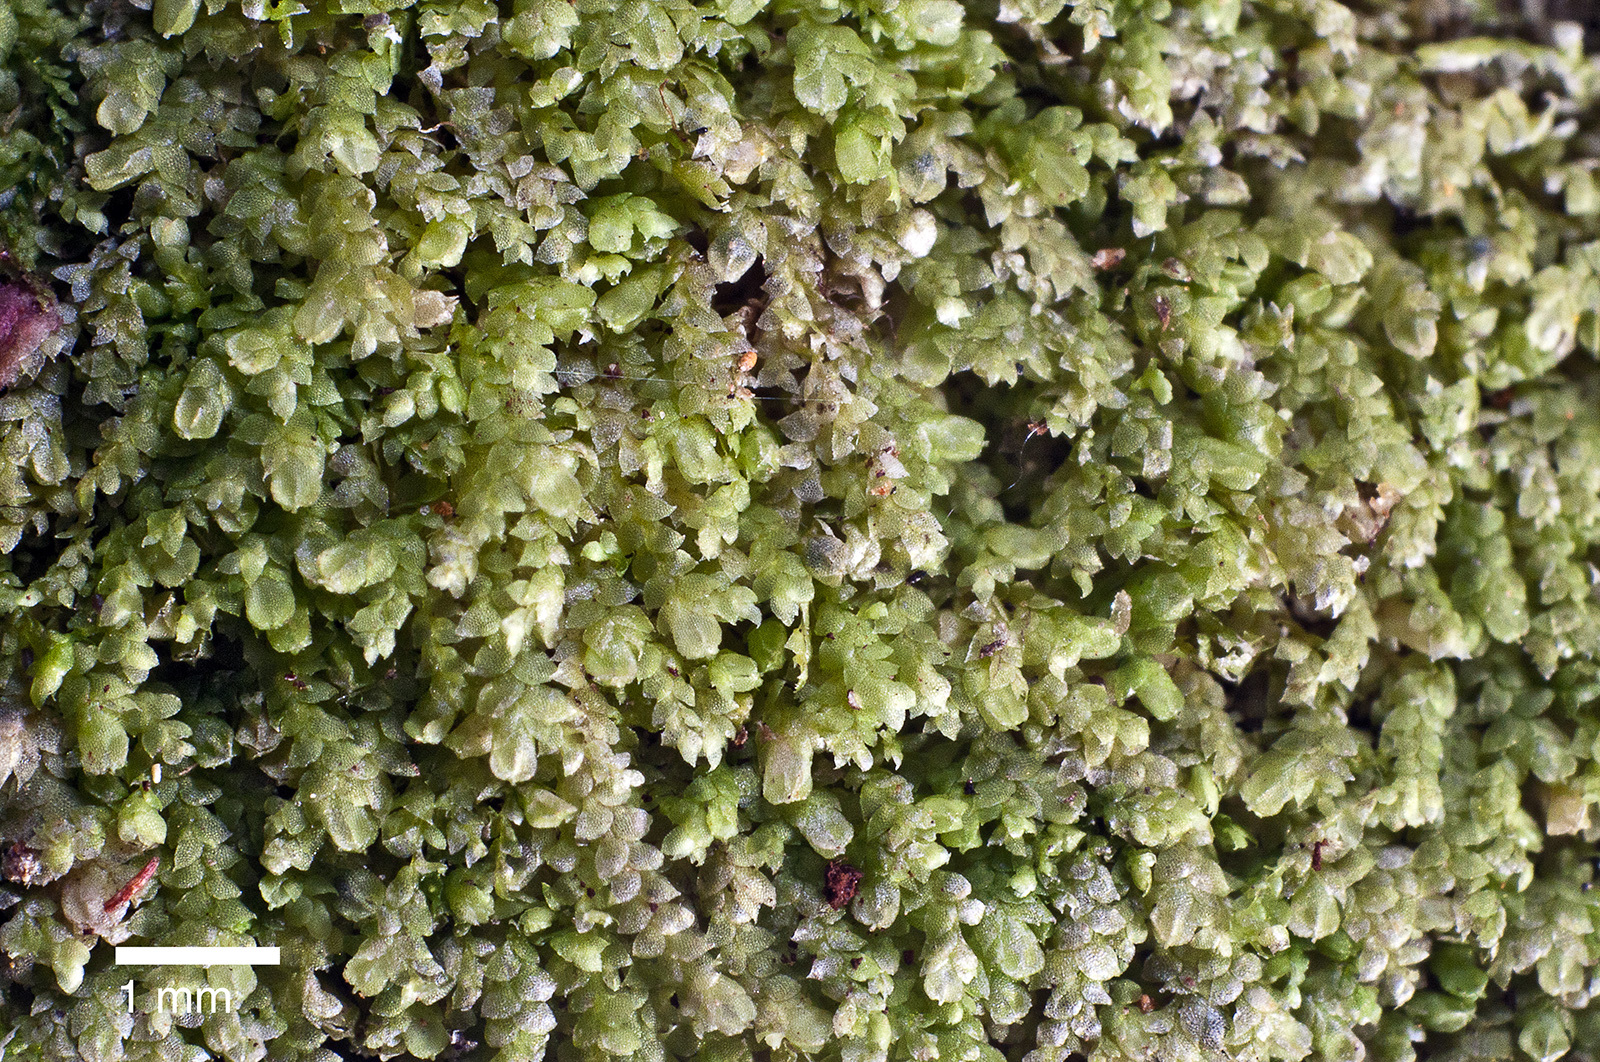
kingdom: Plantae
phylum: Marchantiophyta
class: Jungermanniopsida
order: Porellales
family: Lejeuneaceae
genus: Lejeunea
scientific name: Lejeunea apiculata
